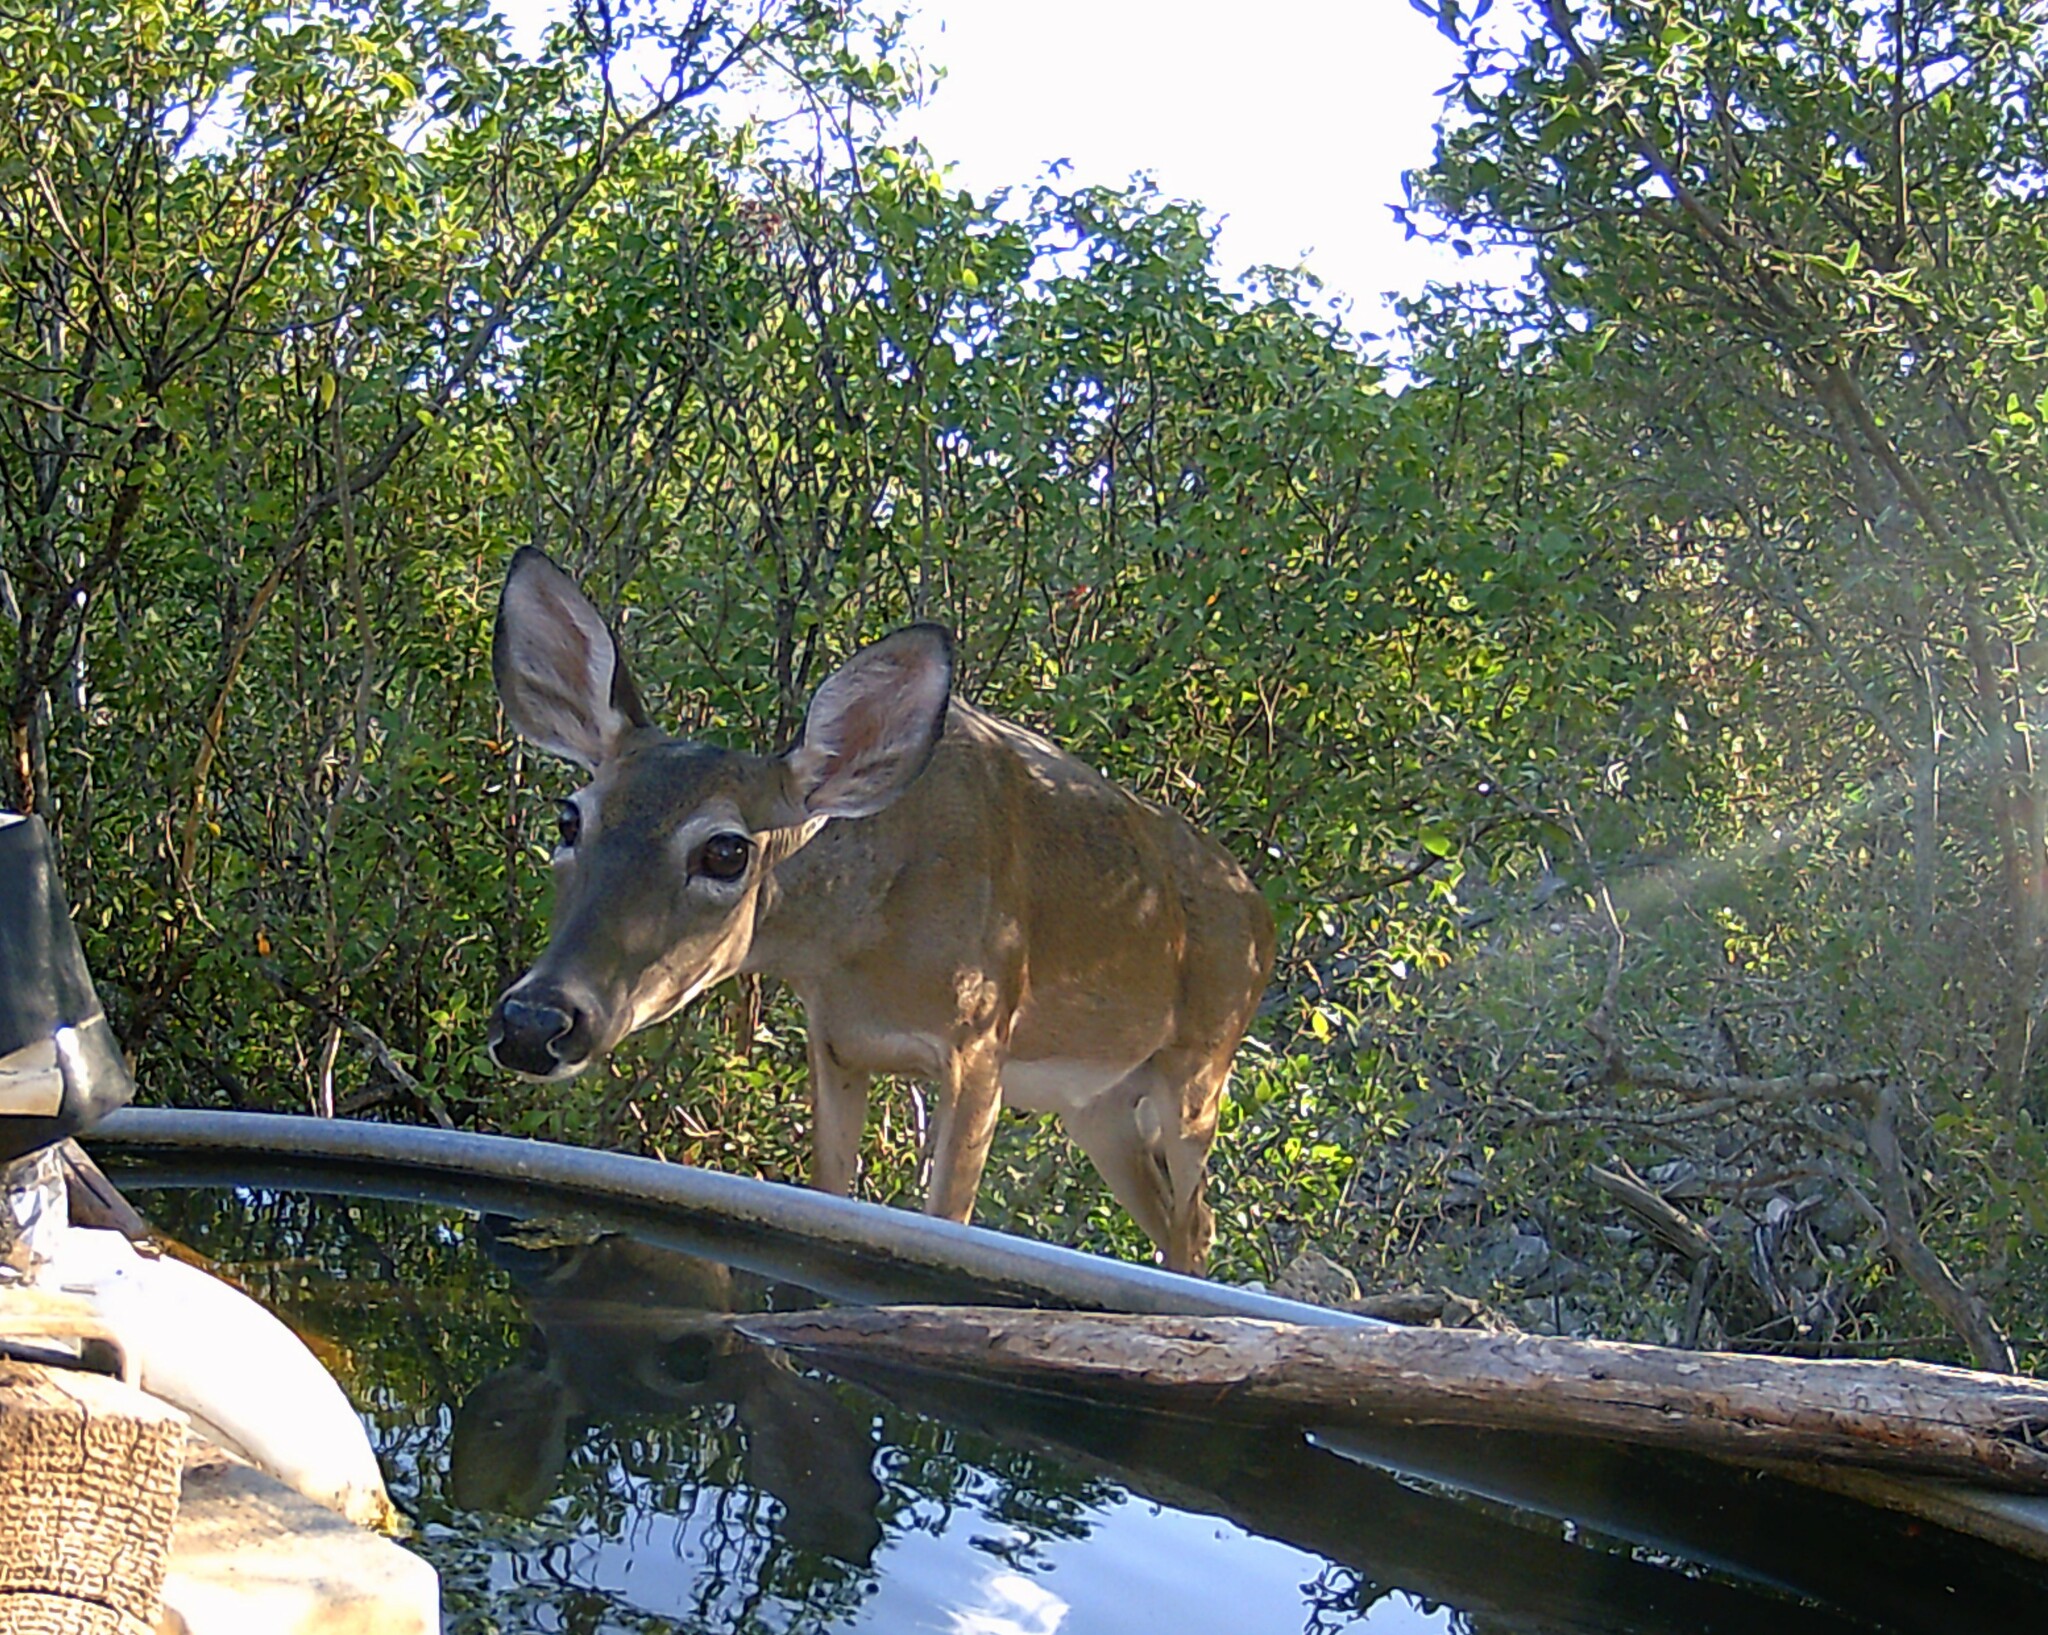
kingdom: Animalia
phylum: Chordata
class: Mammalia
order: Artiodactyla
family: Cervidae
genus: Odocoileus
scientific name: Odocoileus virginianus
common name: White-tailed deer
